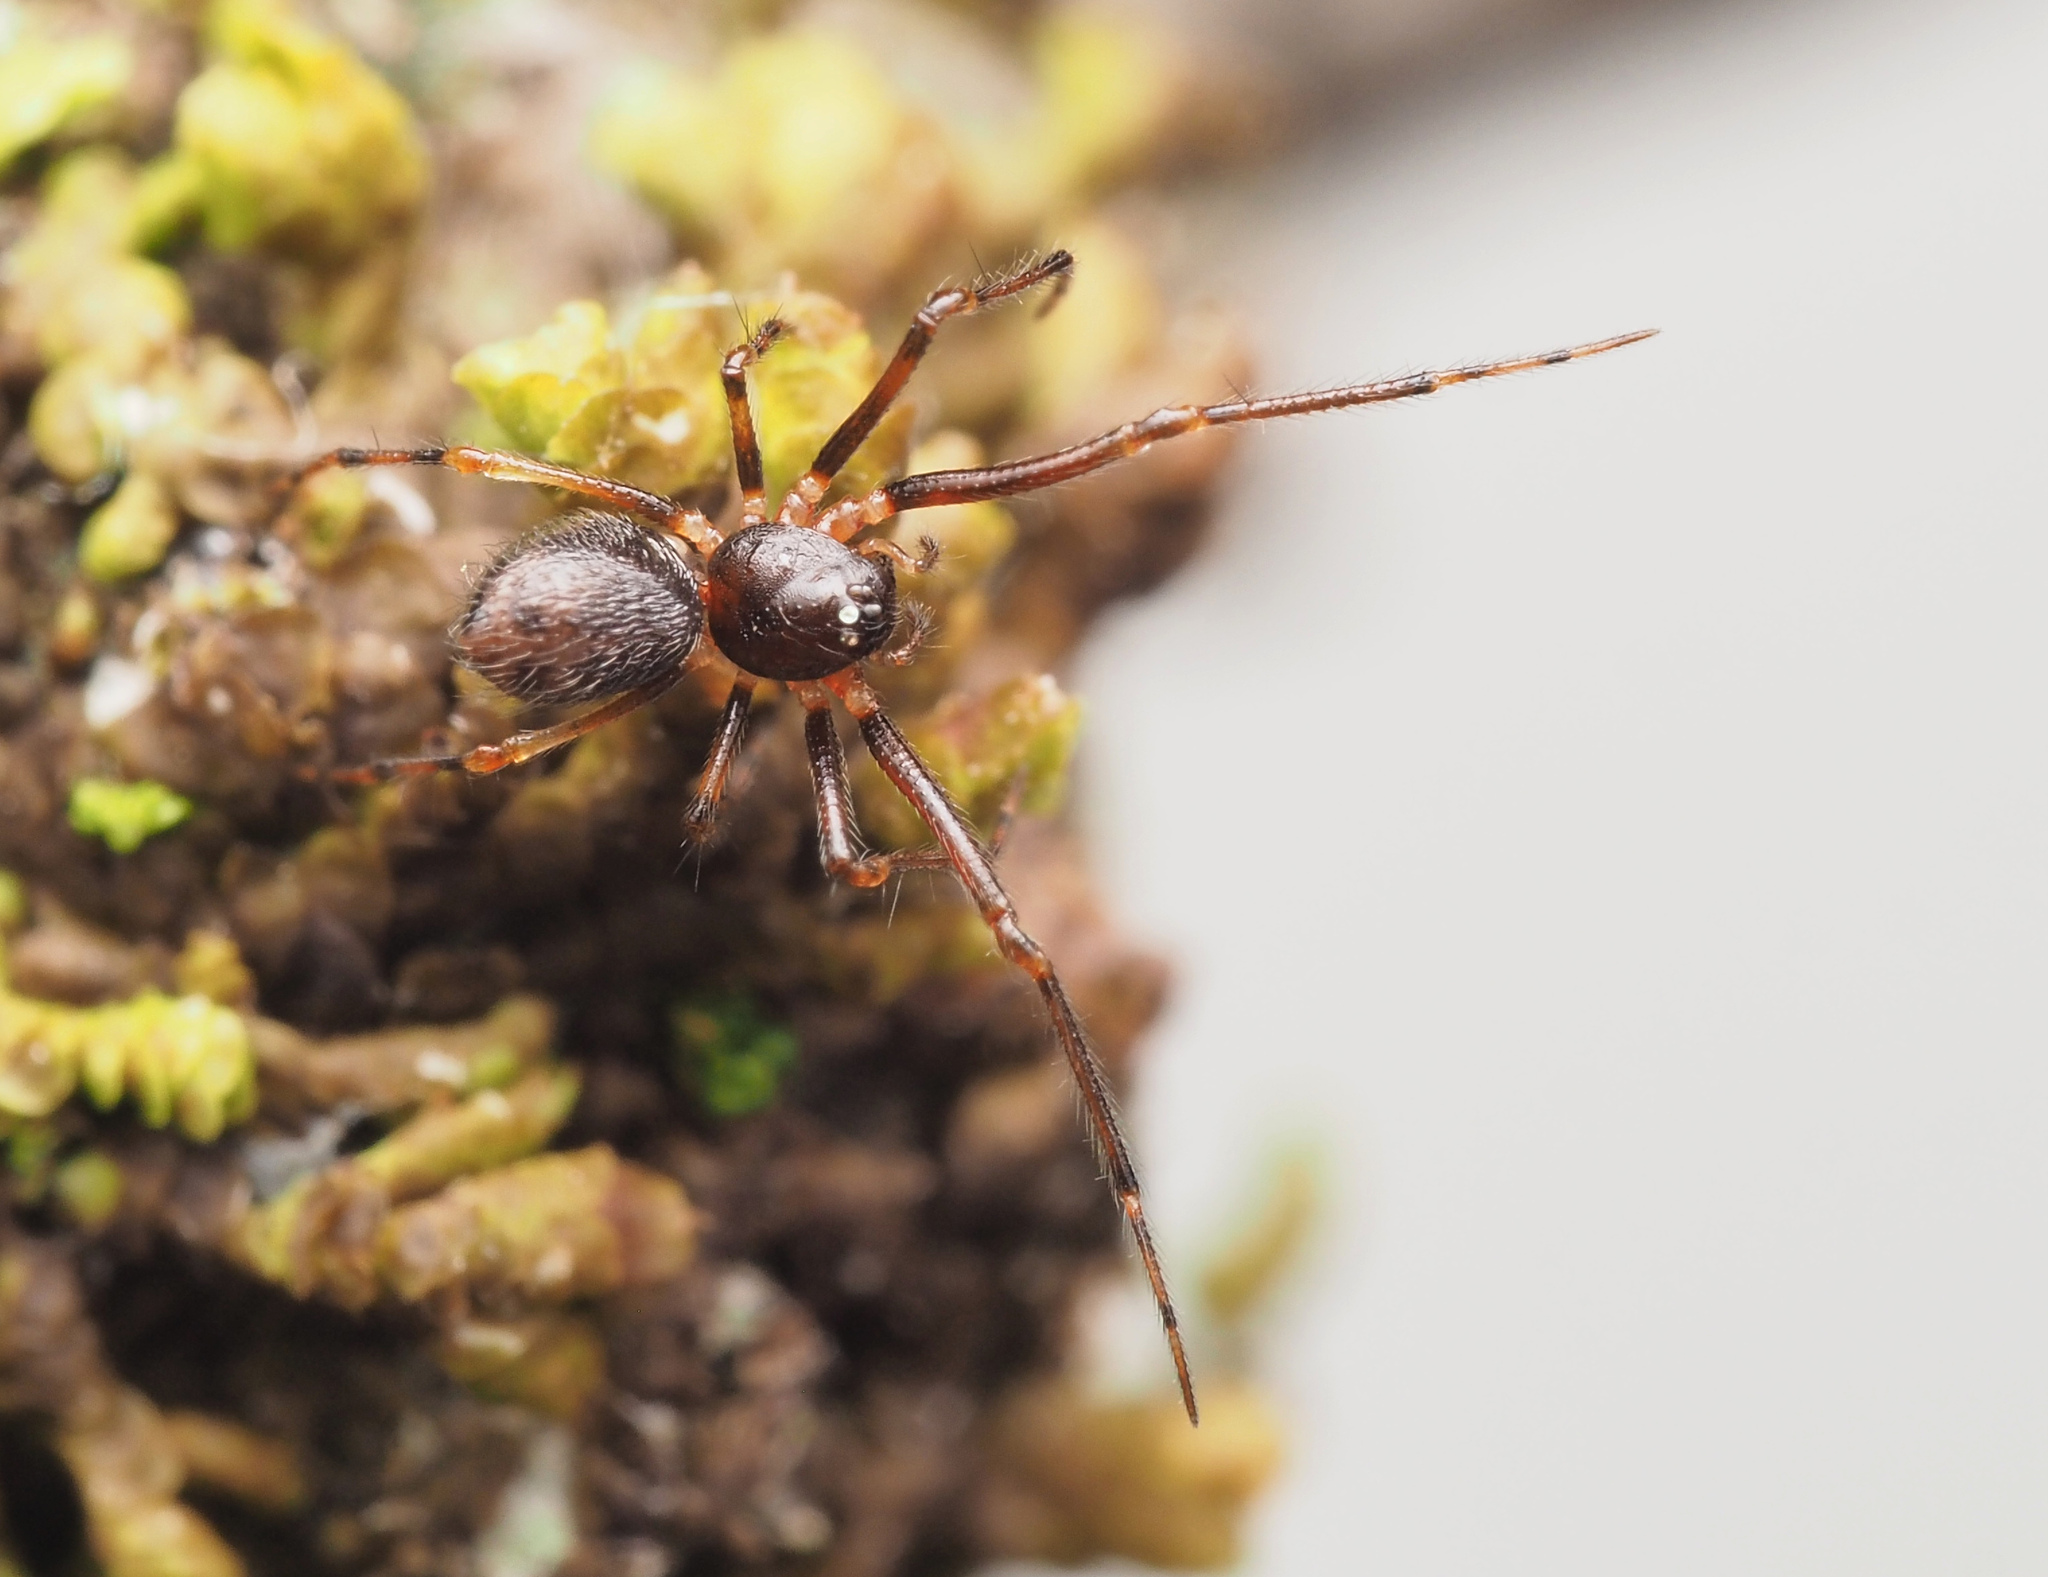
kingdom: Animalia
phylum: Arthropoda
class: Arachnida
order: Araneae
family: Cyatholipidae
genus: Teemenaarus
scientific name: Teemenaarus
